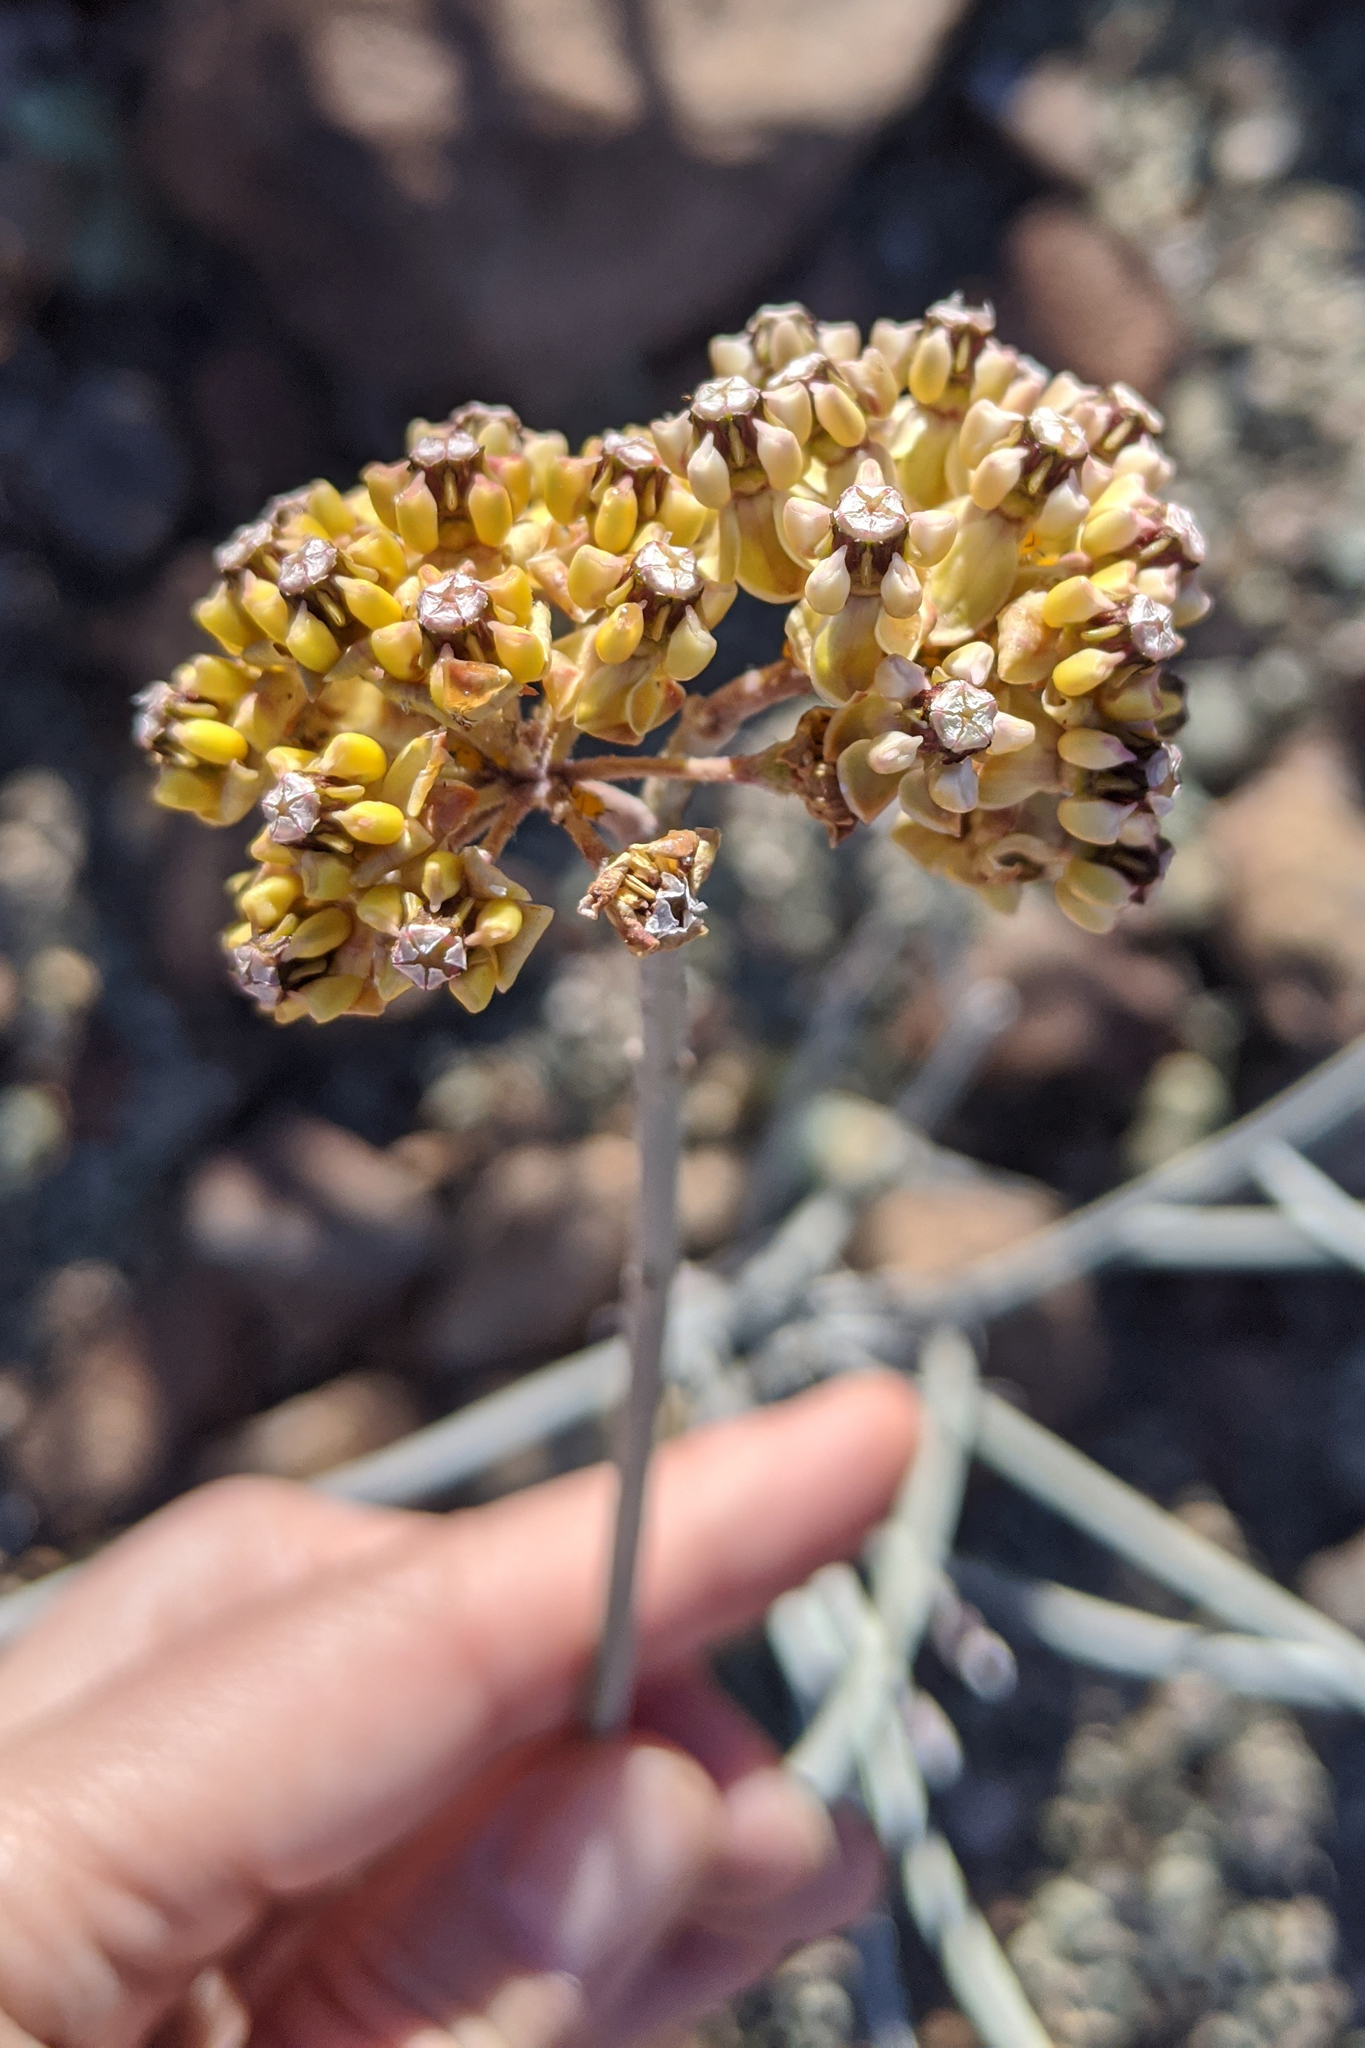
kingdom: Plantae
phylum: Tracheophyta
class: Magnoliopsida
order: Gentianales
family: Apocynaceae
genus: Asclepias
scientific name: Asclepias albicans
